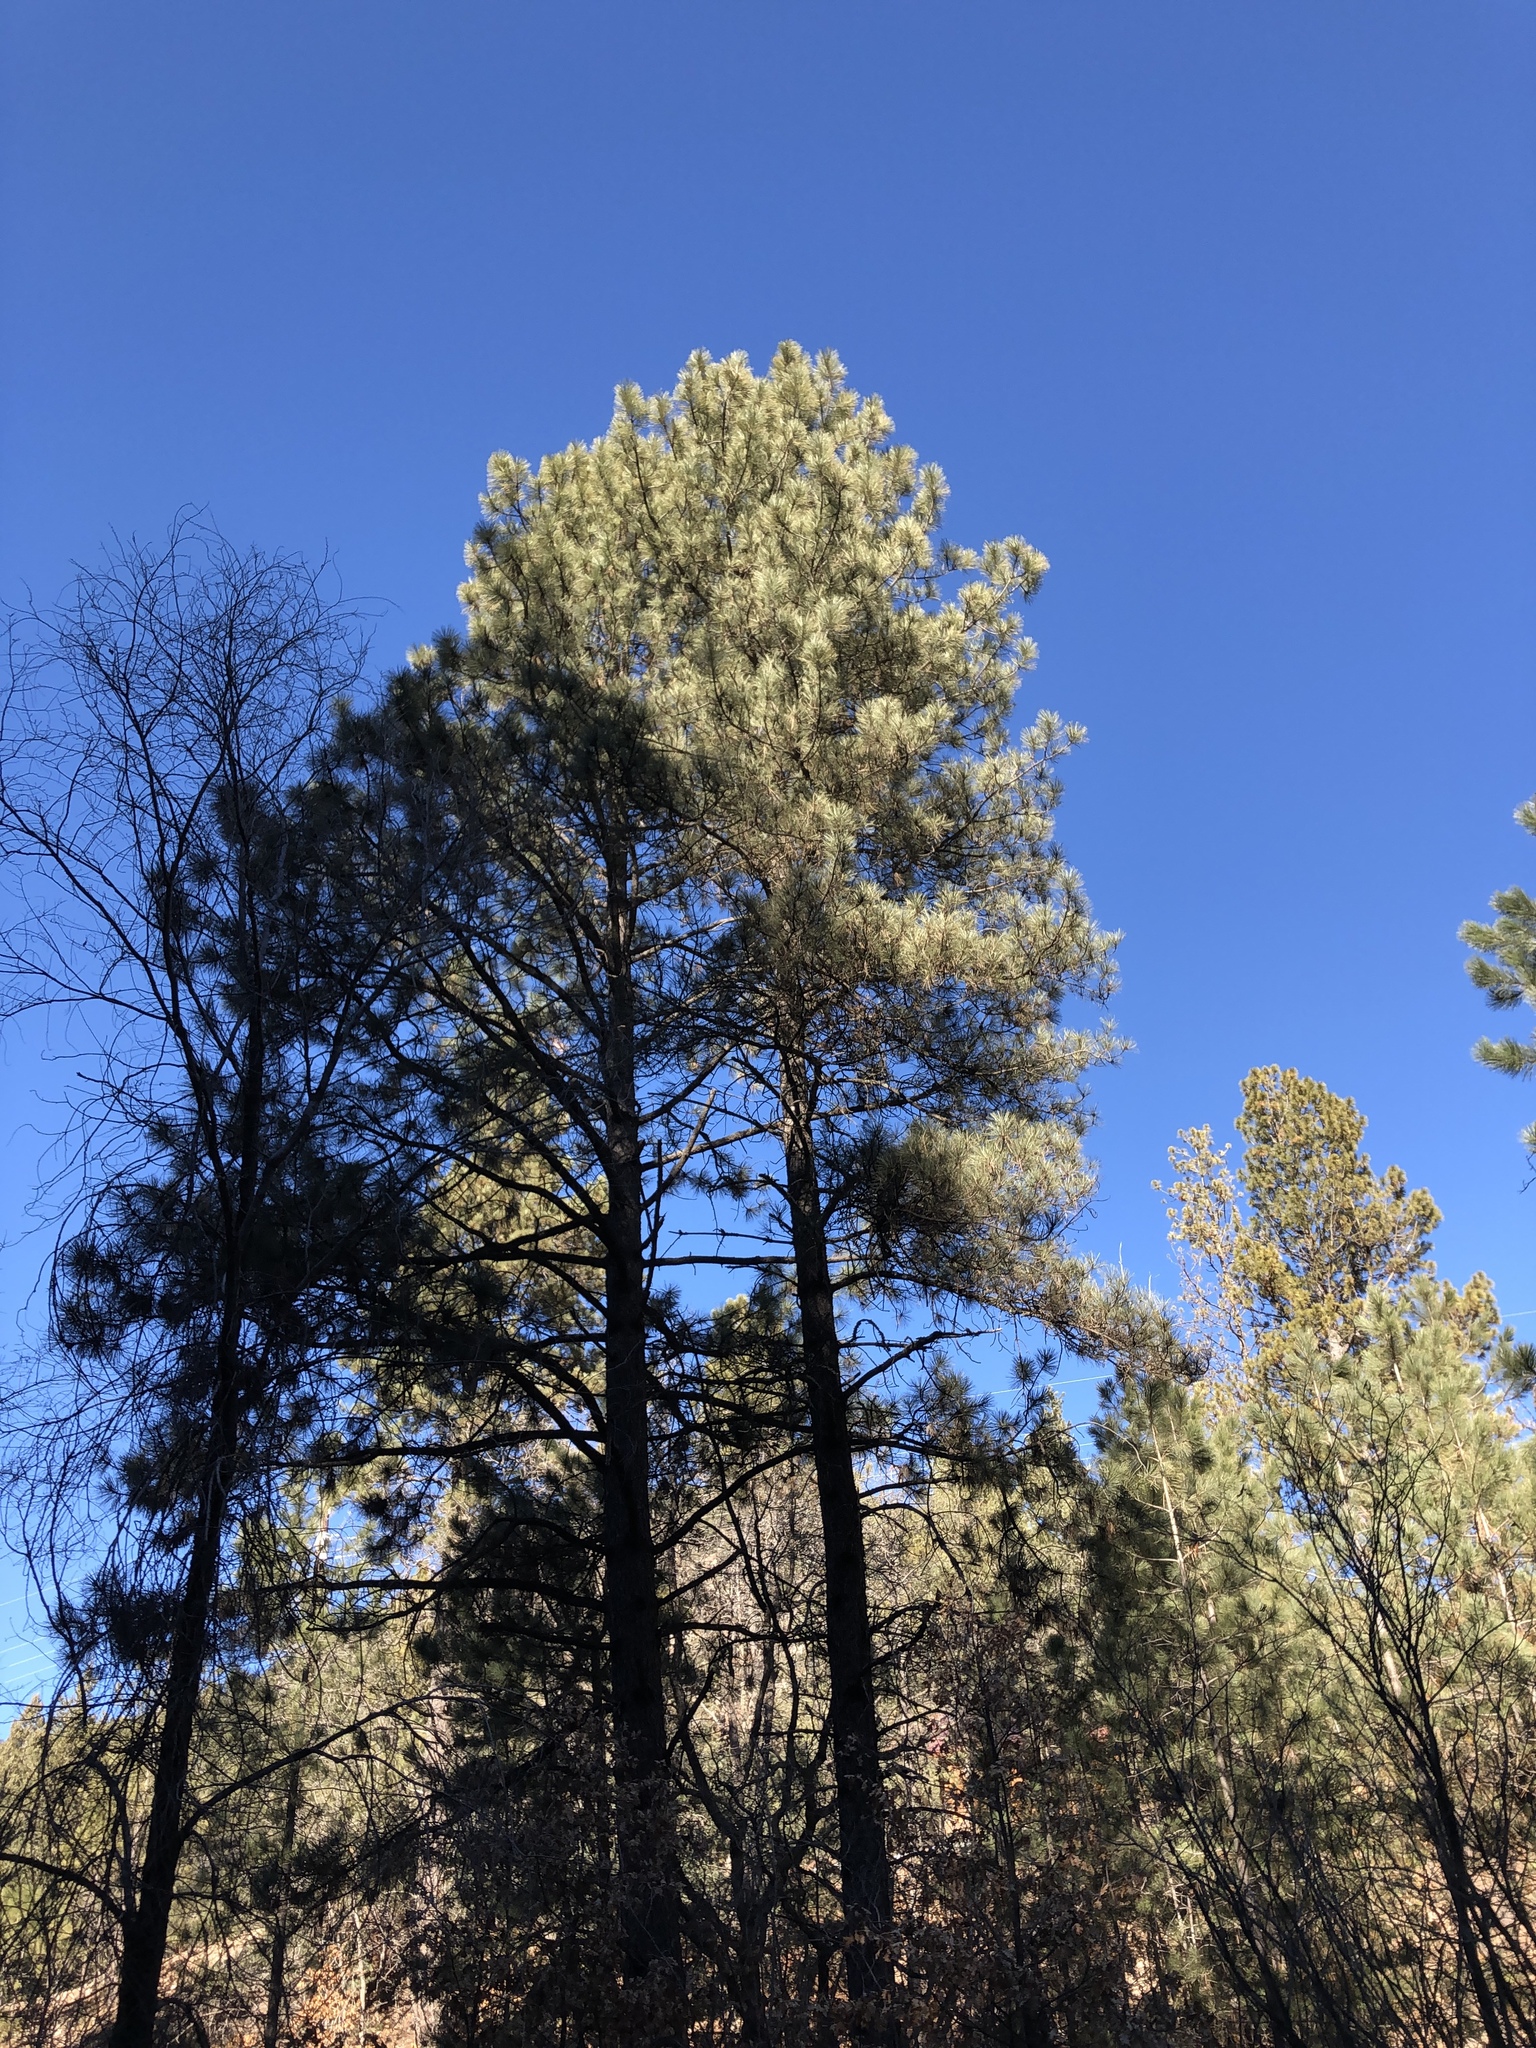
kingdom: Plantae
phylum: Tracheophyta
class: Pinopsida
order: Pinales
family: Pinaceae
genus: Pinus
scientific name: Pinus ponderosa
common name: Western yellow-pine
